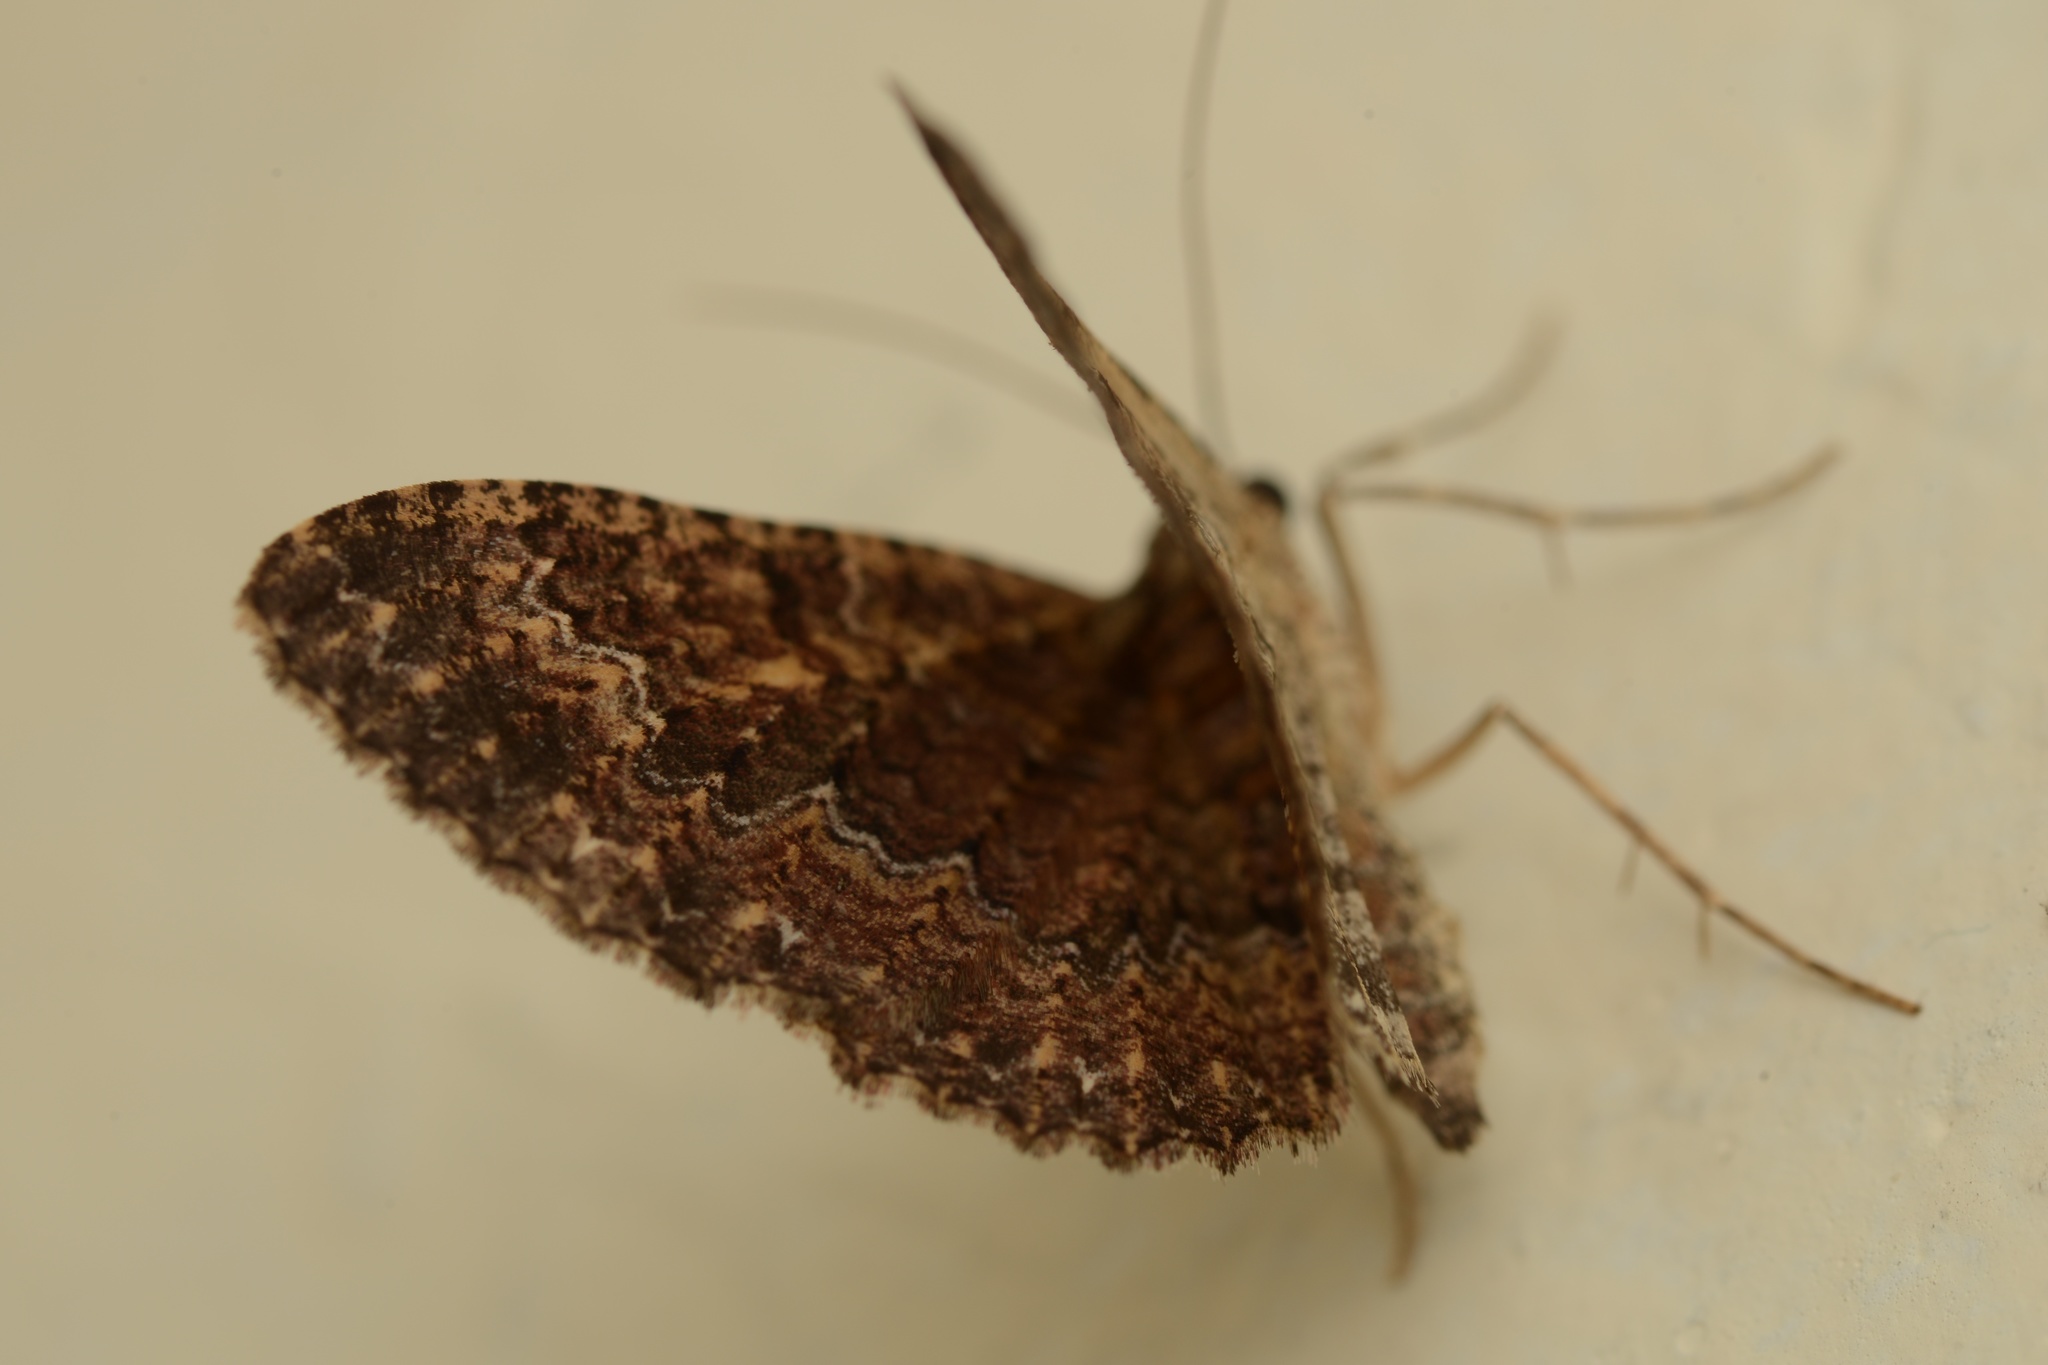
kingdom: Animalia
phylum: Arthropoda
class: Insecta
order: Lepidoptera
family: Geometridae
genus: Disclisioprocta
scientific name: Disclisioprocta stellata
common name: Somber carpet
